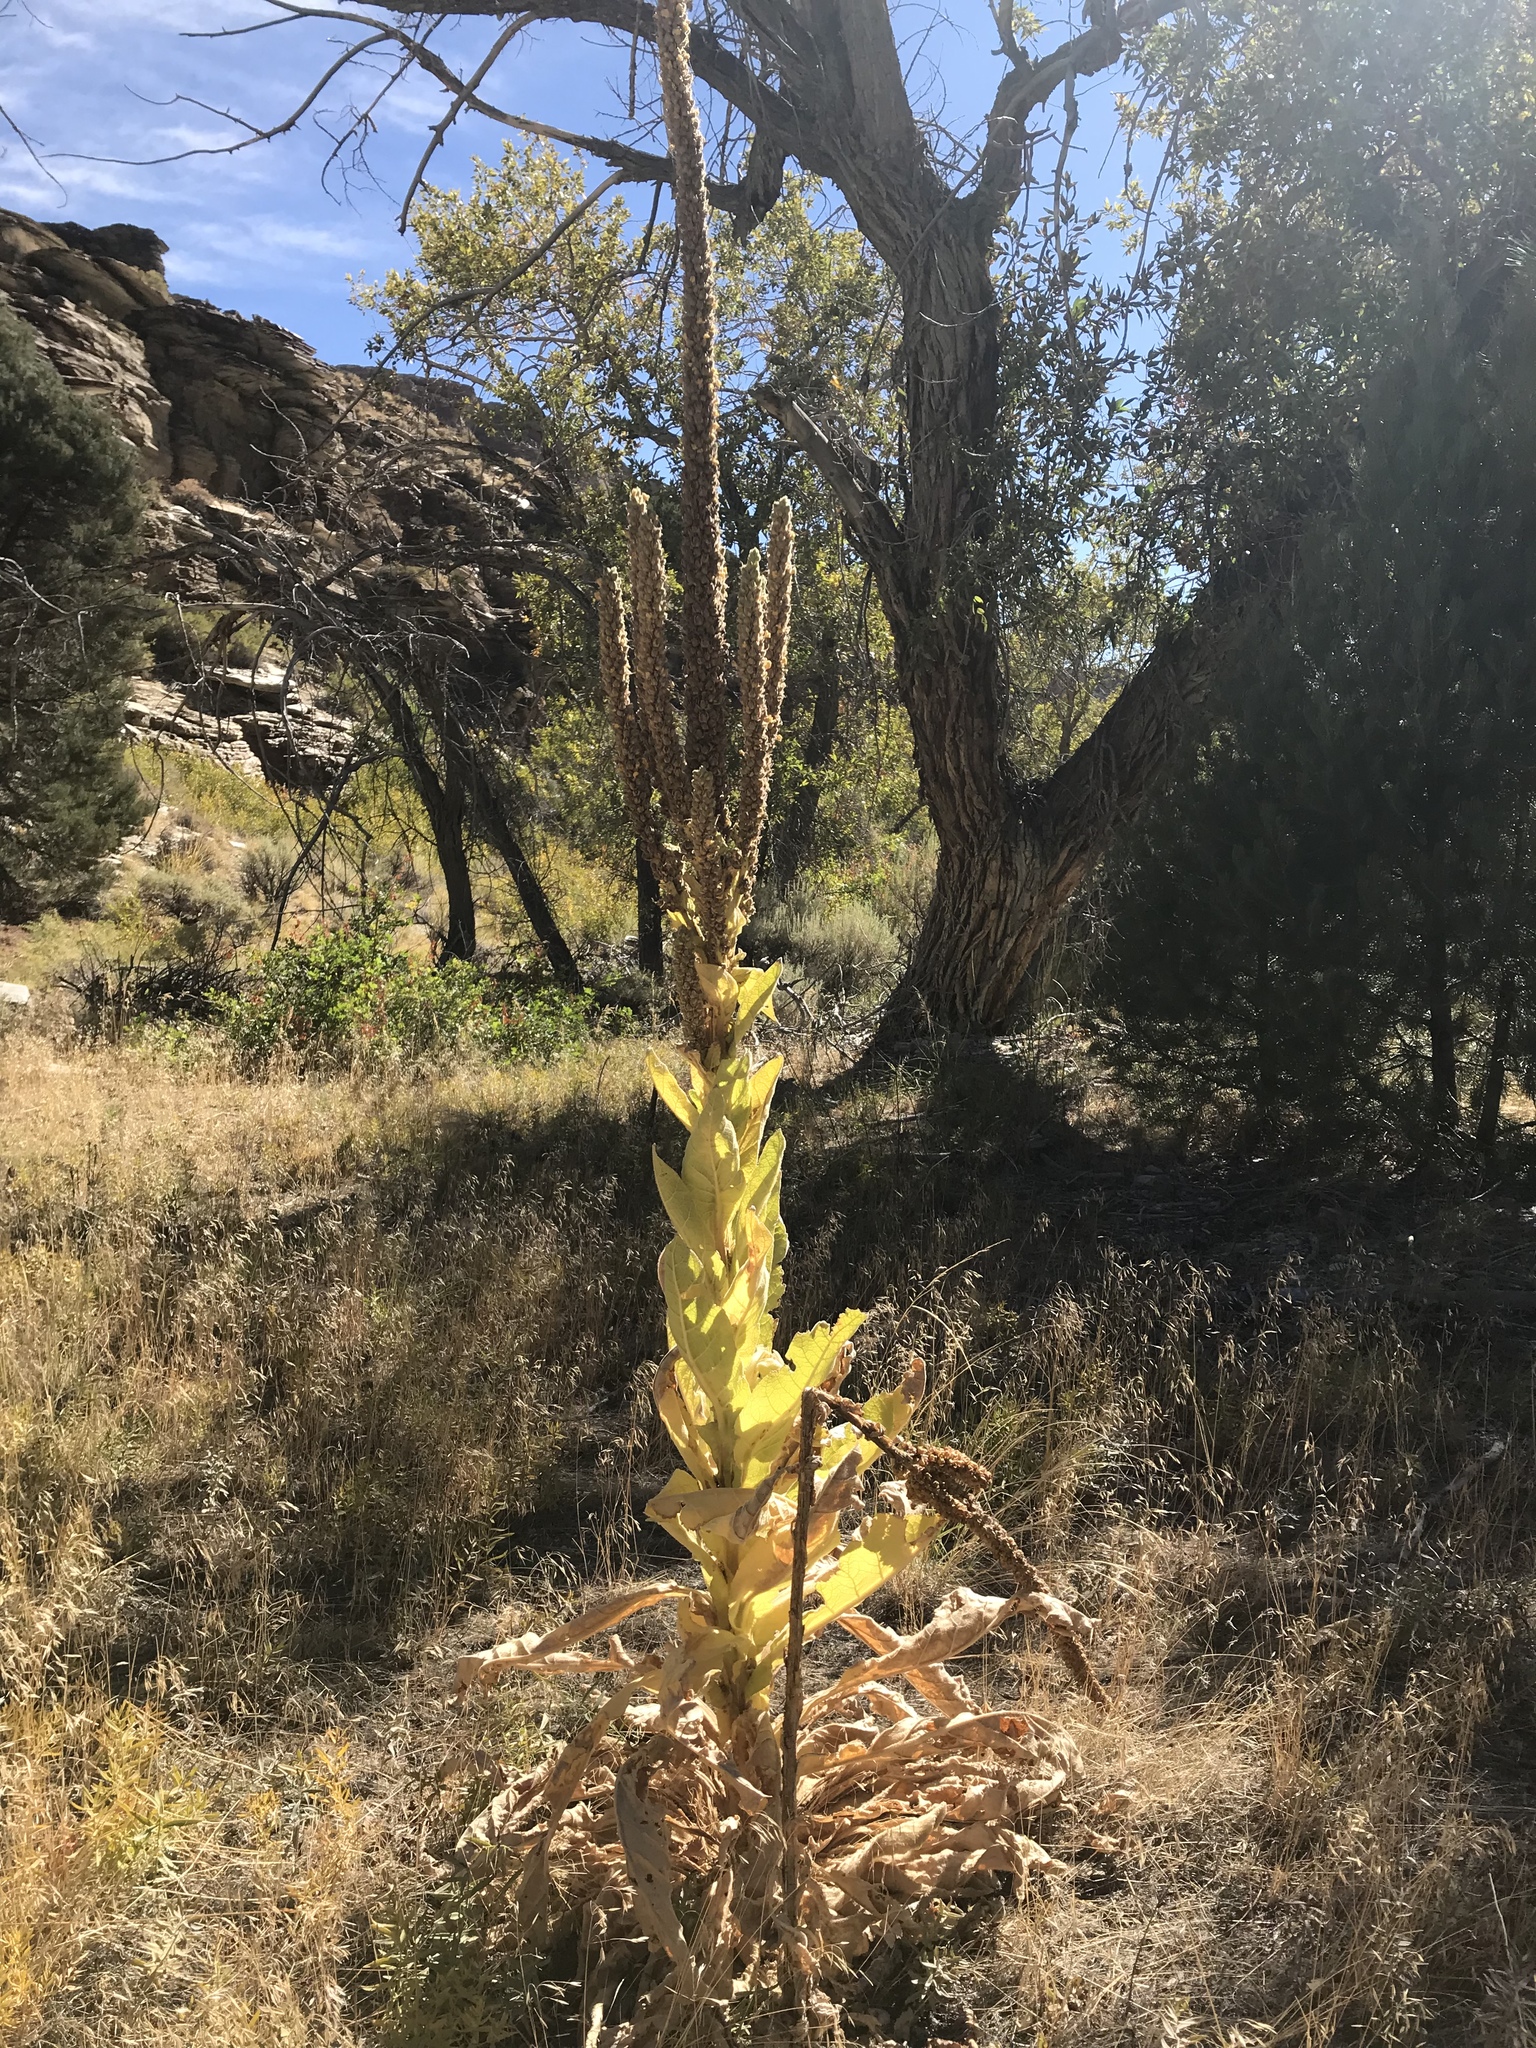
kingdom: Plantae
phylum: Tracheophyta
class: Magnoliopsida
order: Lamiales
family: Scrophulariaceae
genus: Verbascum
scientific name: Verbascum thapsus
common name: Common mullein
